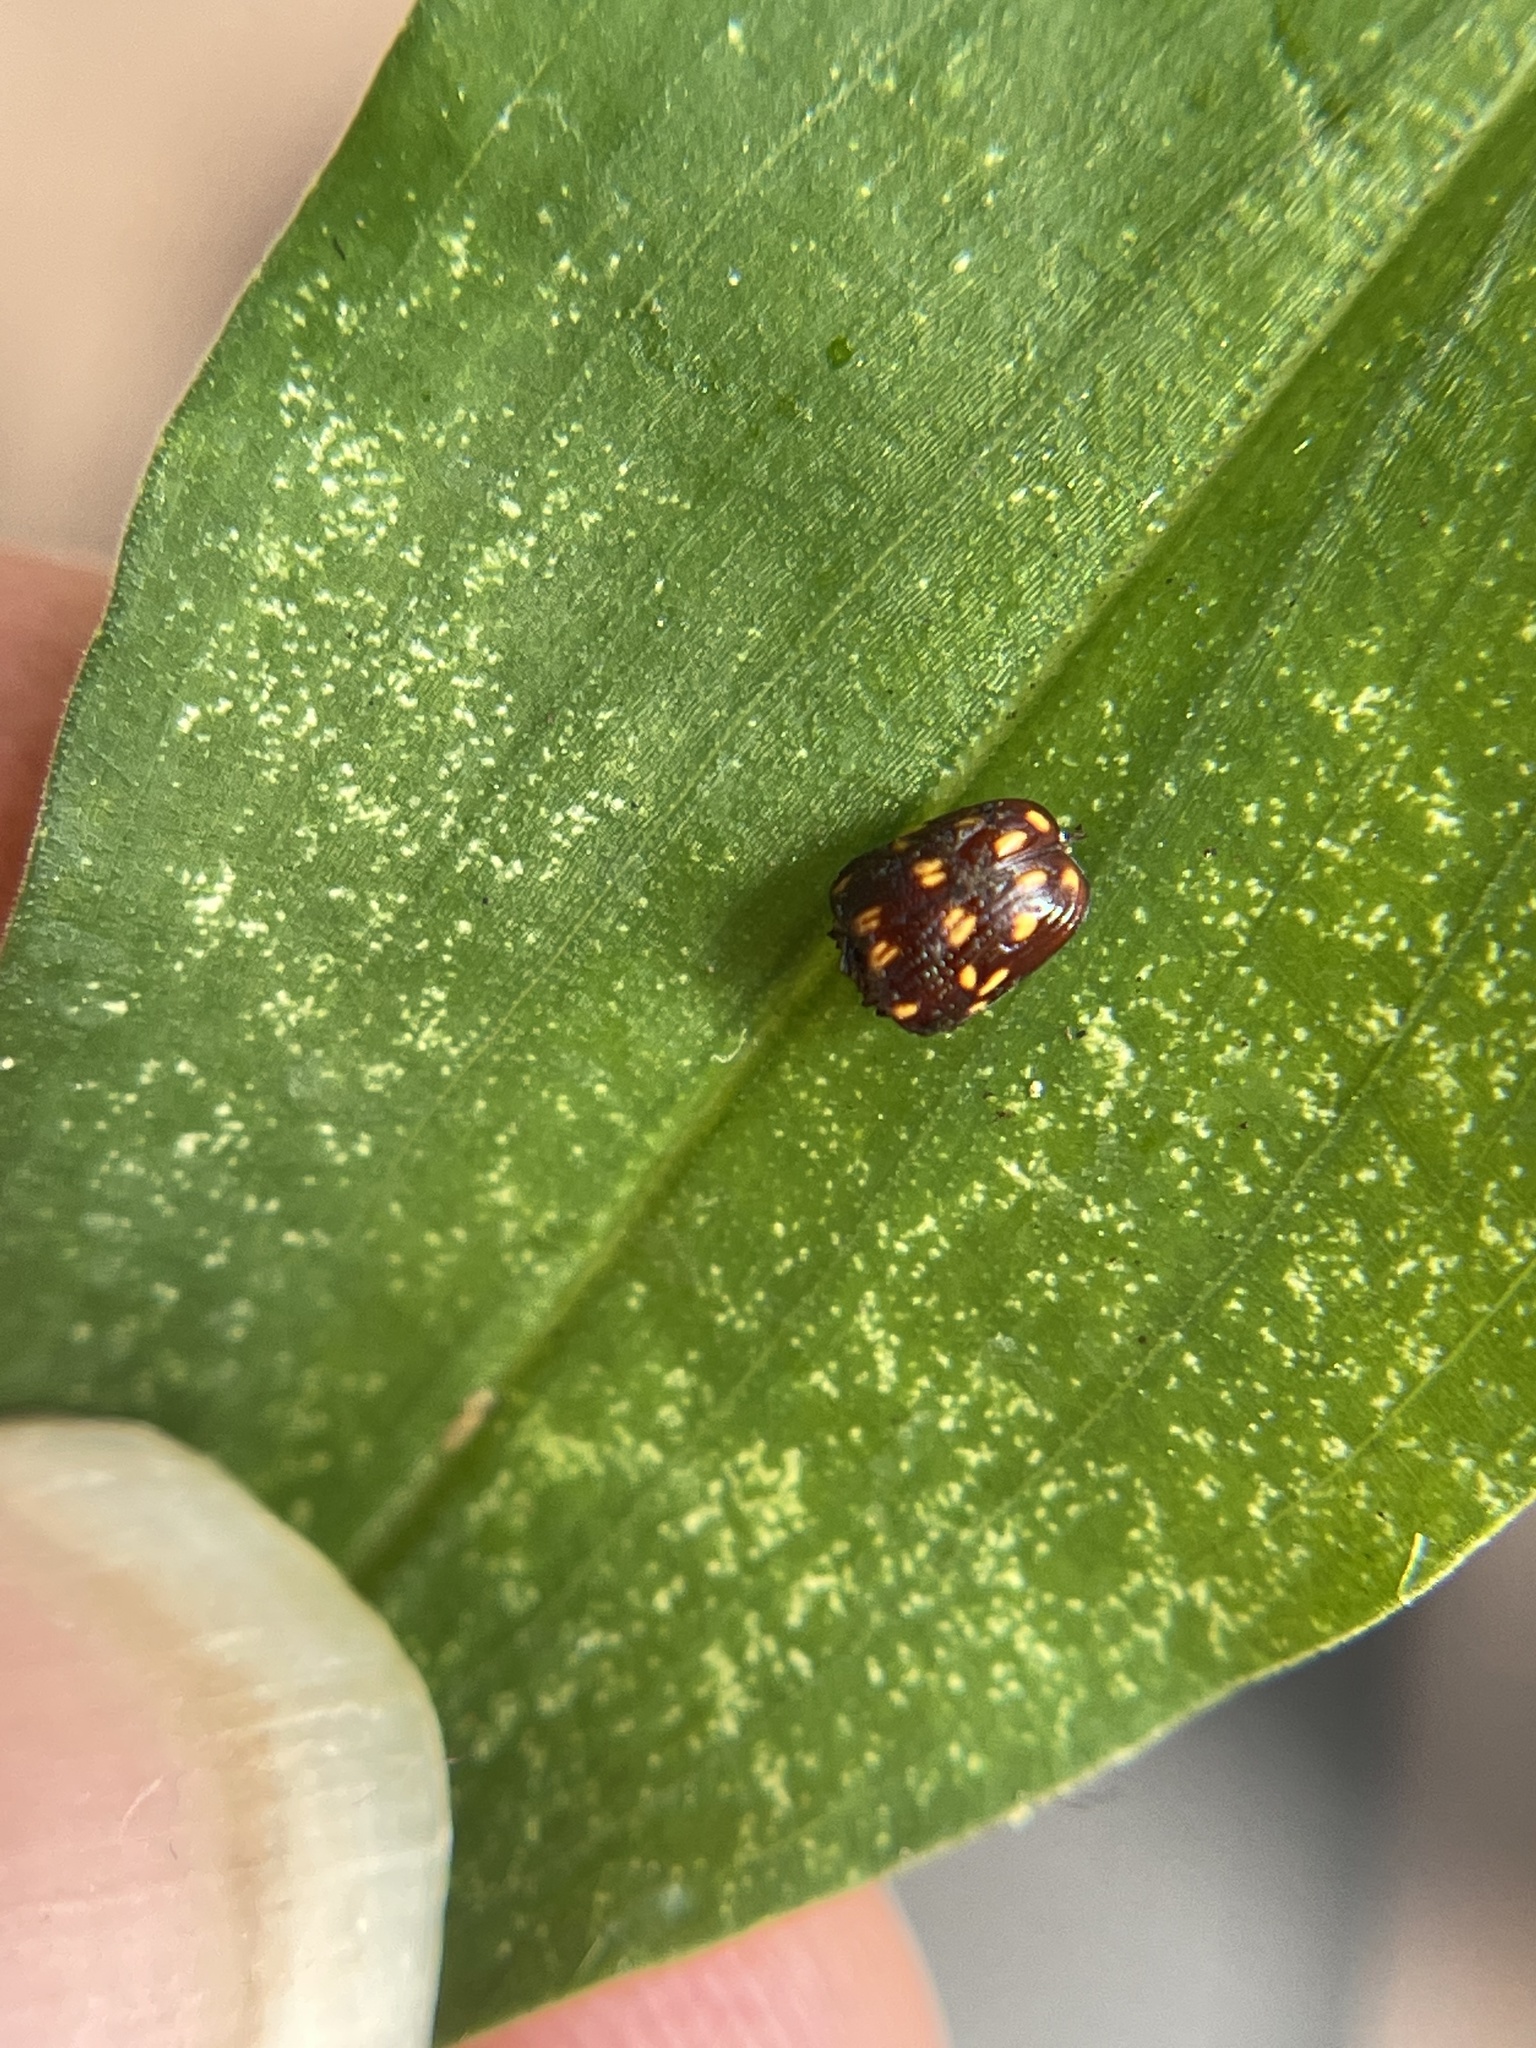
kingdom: Animalia
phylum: Arthropoda
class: Insecta
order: Coleoptera
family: Chrysomelidae
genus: Cryptocephalus
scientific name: Cryptocephalus nigrocinctus
